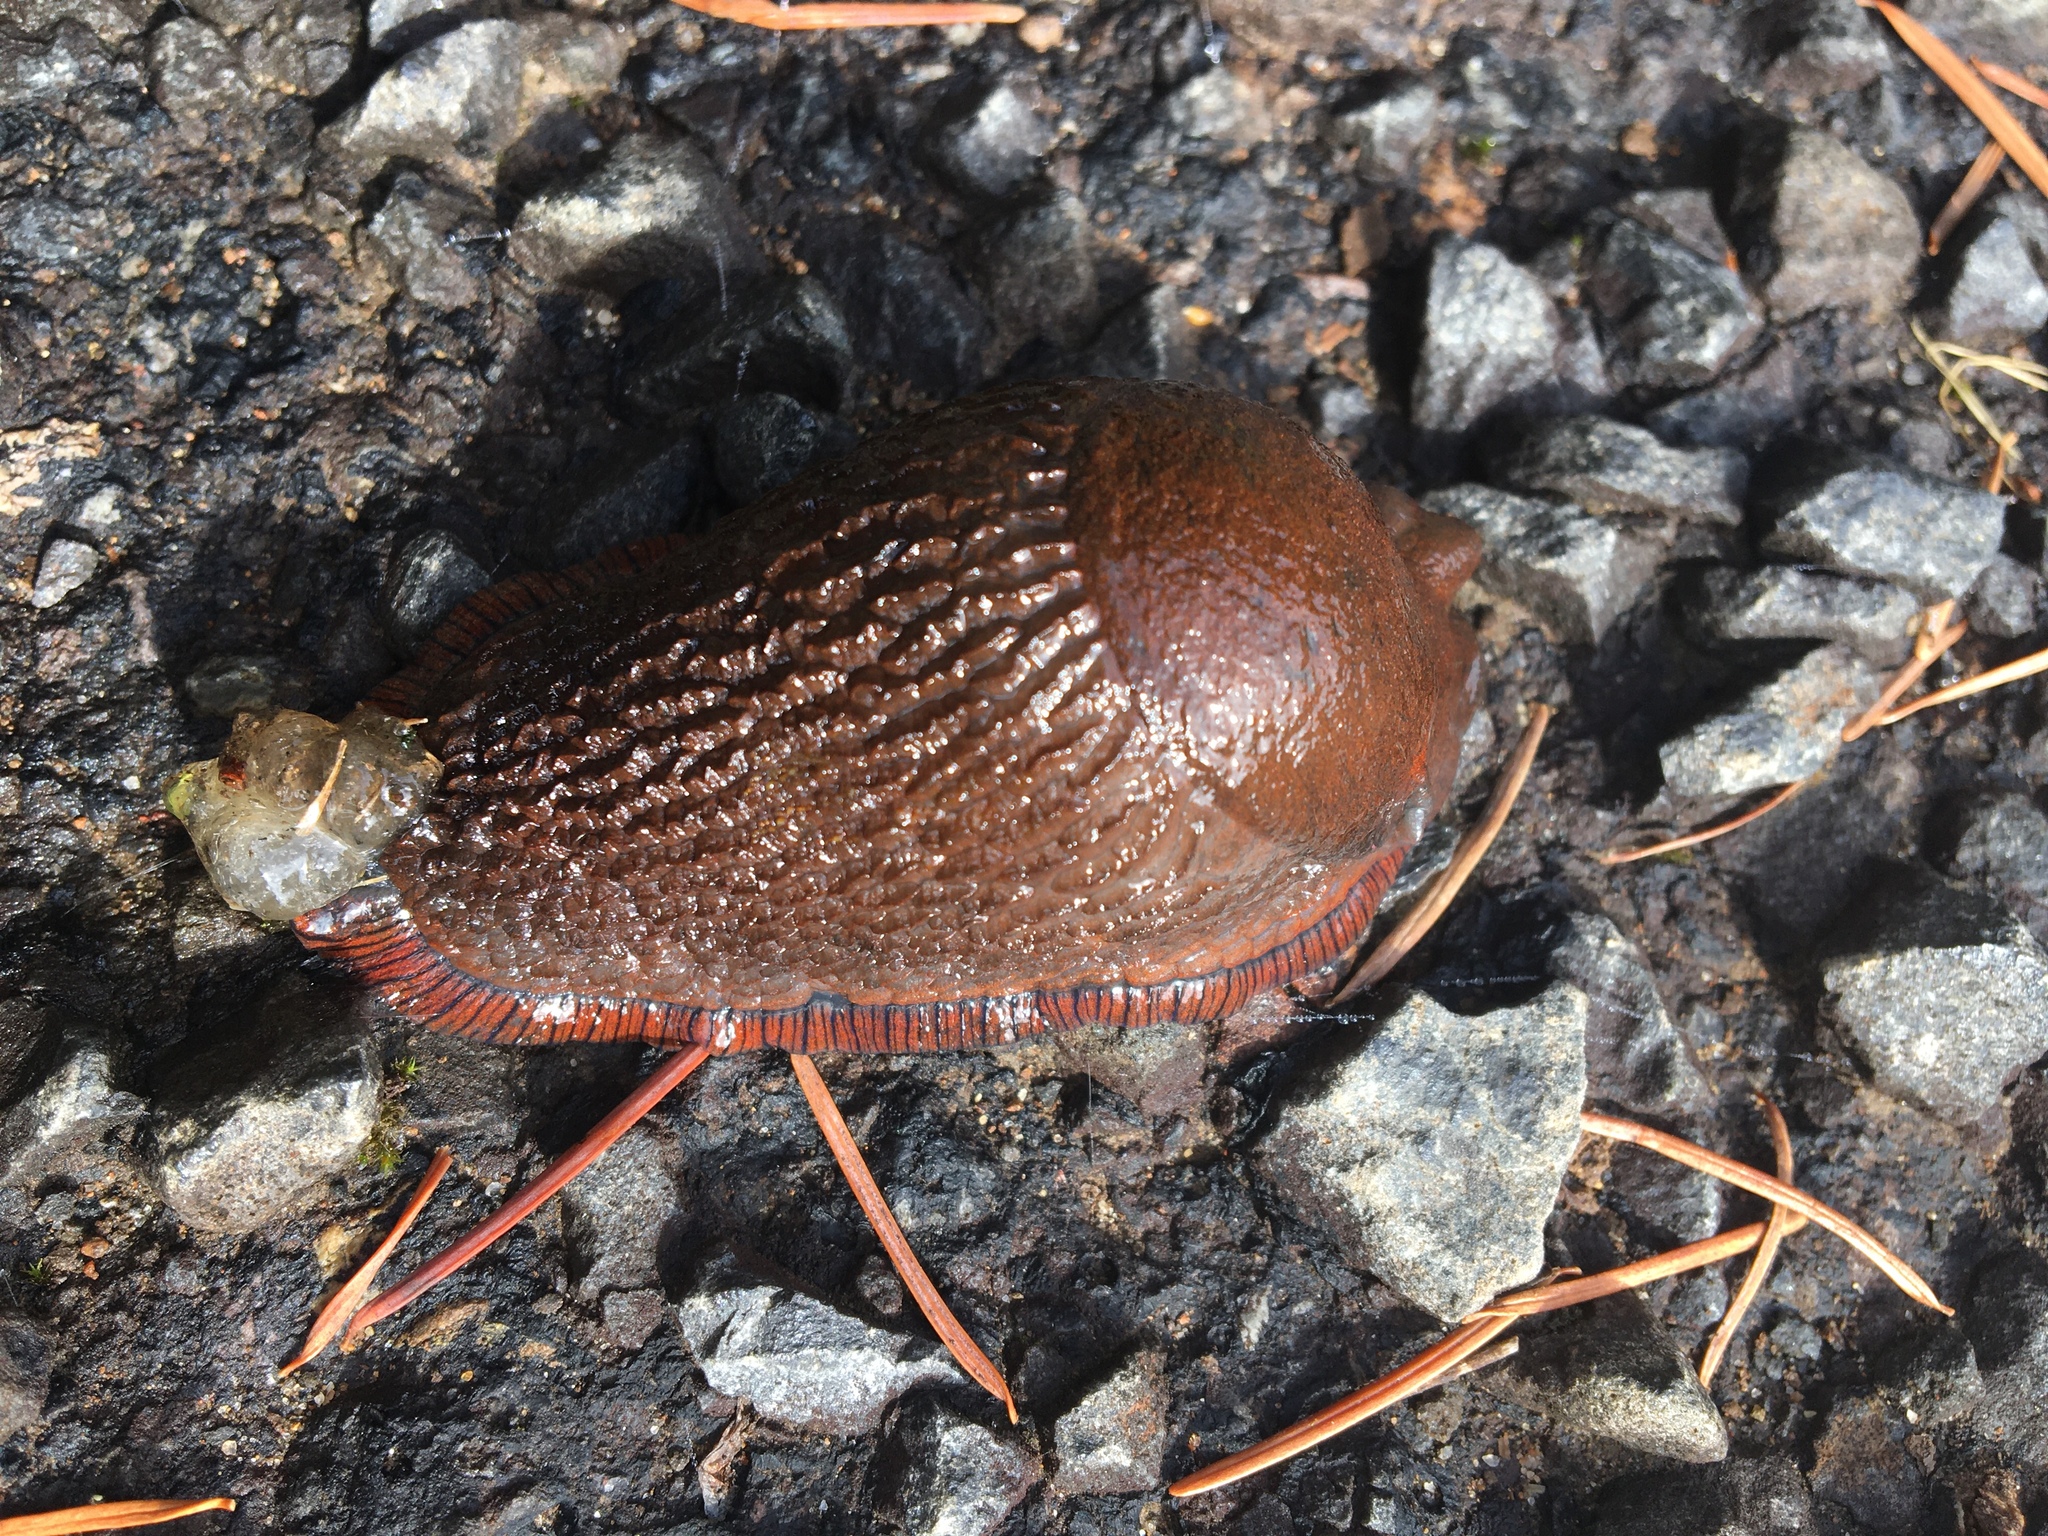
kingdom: Animalia
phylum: Mollusca
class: Gastropoda
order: Stylommatophora
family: Arionidae
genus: Arion
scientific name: Arion
